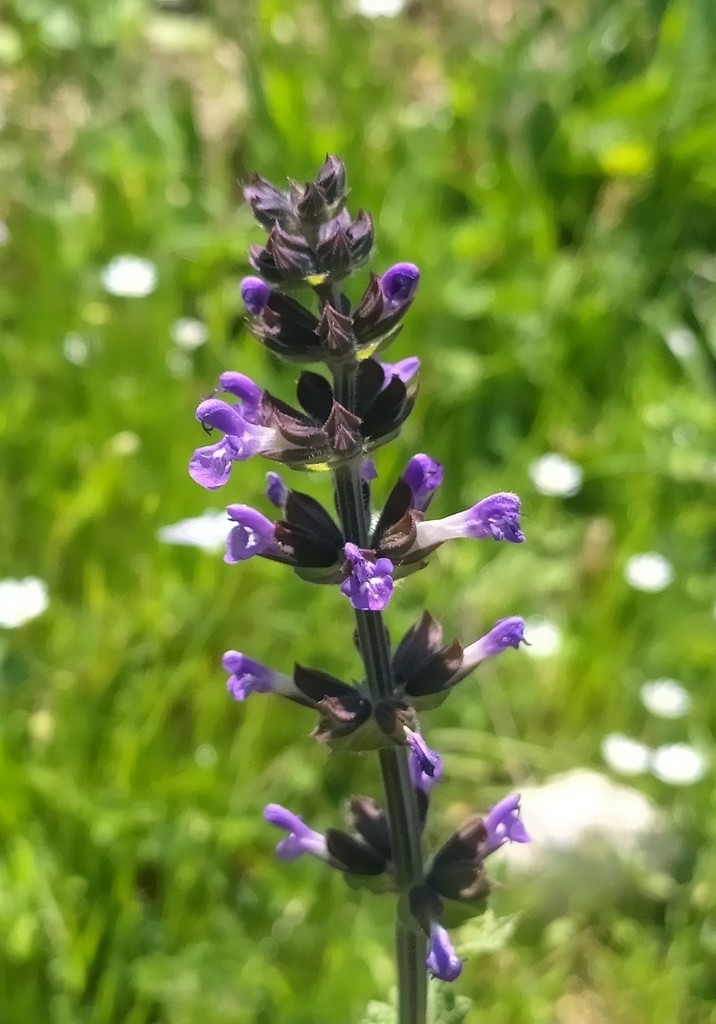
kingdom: Plantae
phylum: Tracheophyta
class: Magnoliopsida
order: Lamiales
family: Lamiaceae
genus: Salvia
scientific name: Salvia verbenaca
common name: Wild clary
